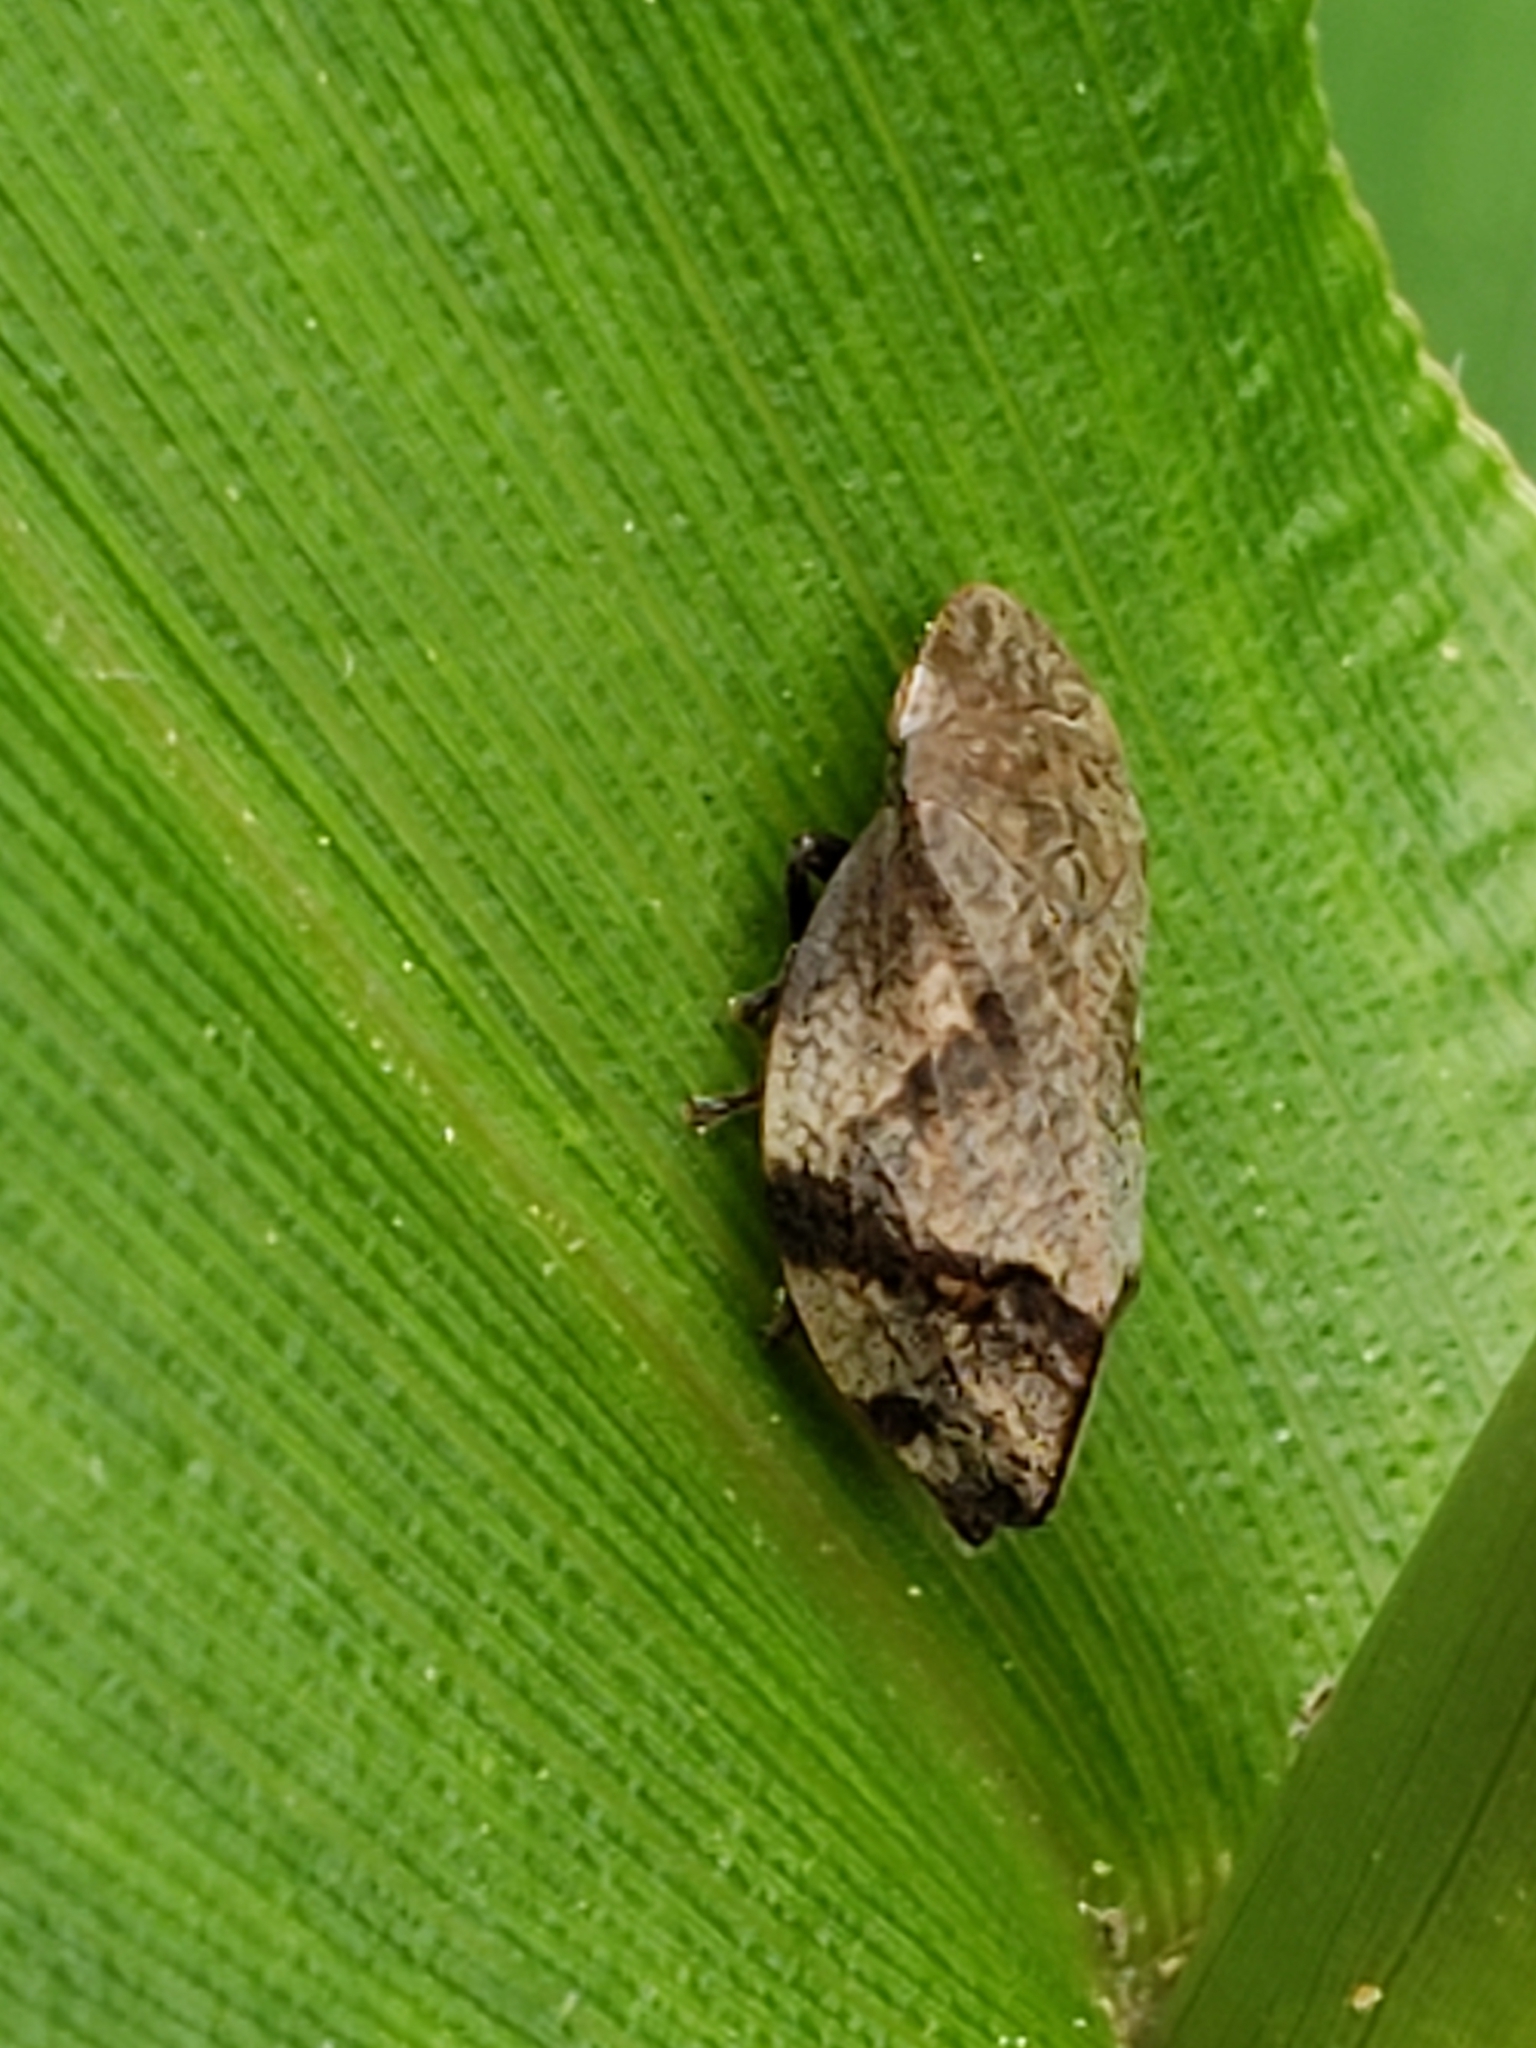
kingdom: Animalia
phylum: Arthropoda
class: Insecta
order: Hemiptera
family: Aphrophoridae
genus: Lepyronia
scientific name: Lepyronia quadrangularis
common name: Diamond-backed spittlebug
